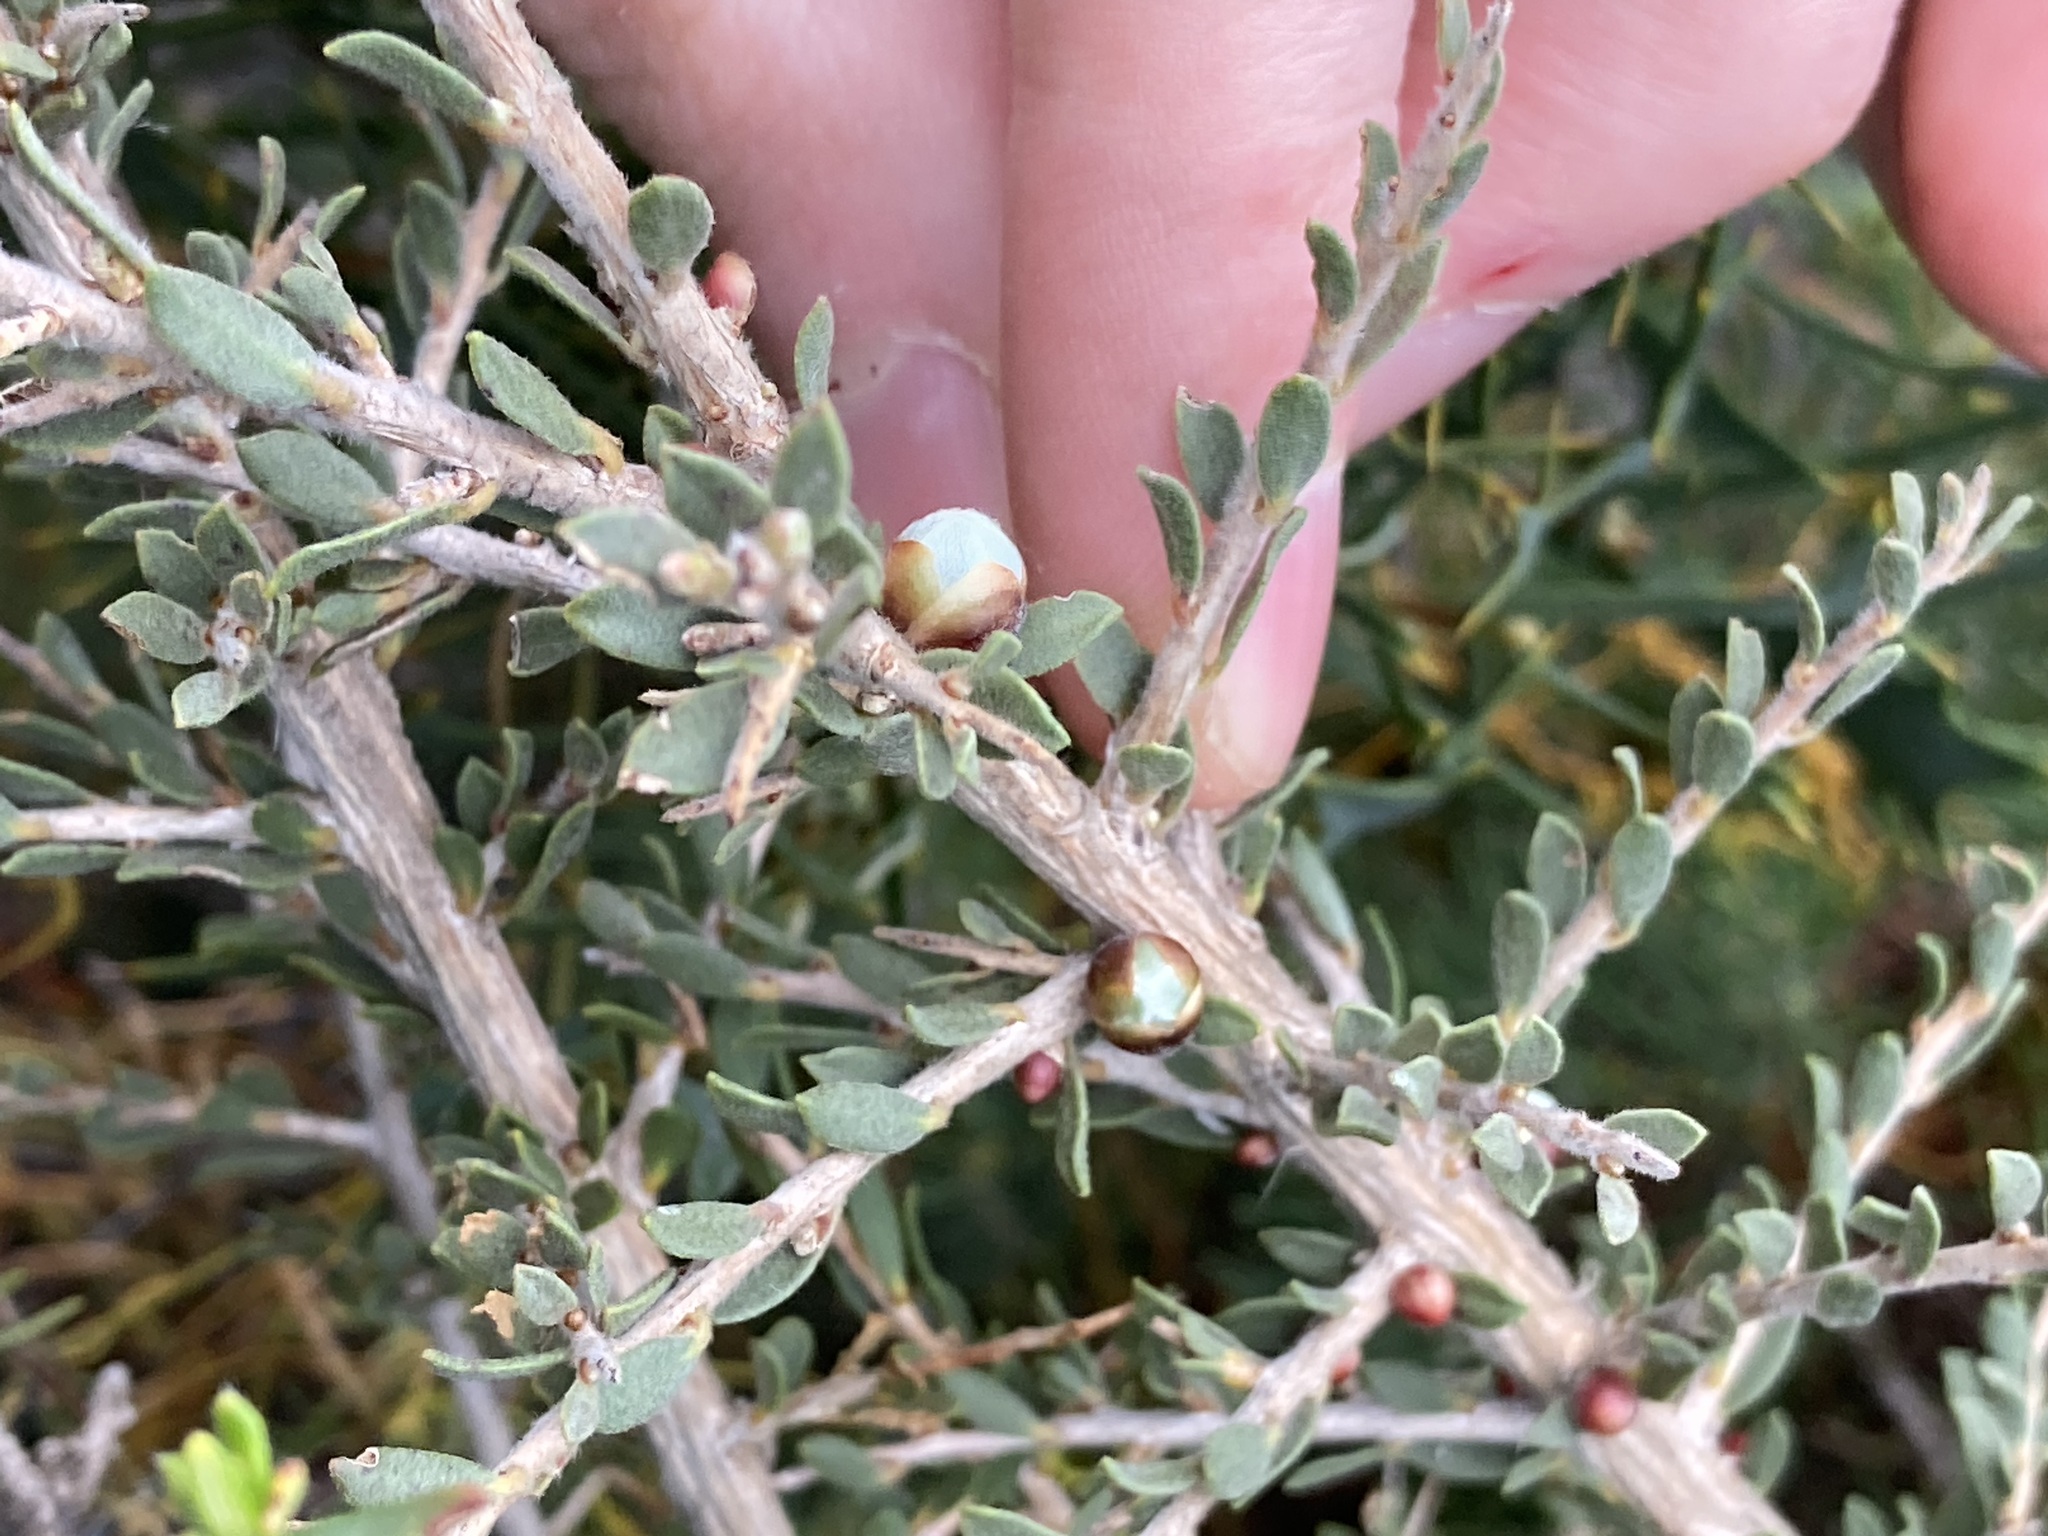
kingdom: Plantae
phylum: Tracheophyta
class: Magnoliopsida
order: Myrtales
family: Myrtaceae
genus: Leptospermum
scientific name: Leptospermum spinescens
